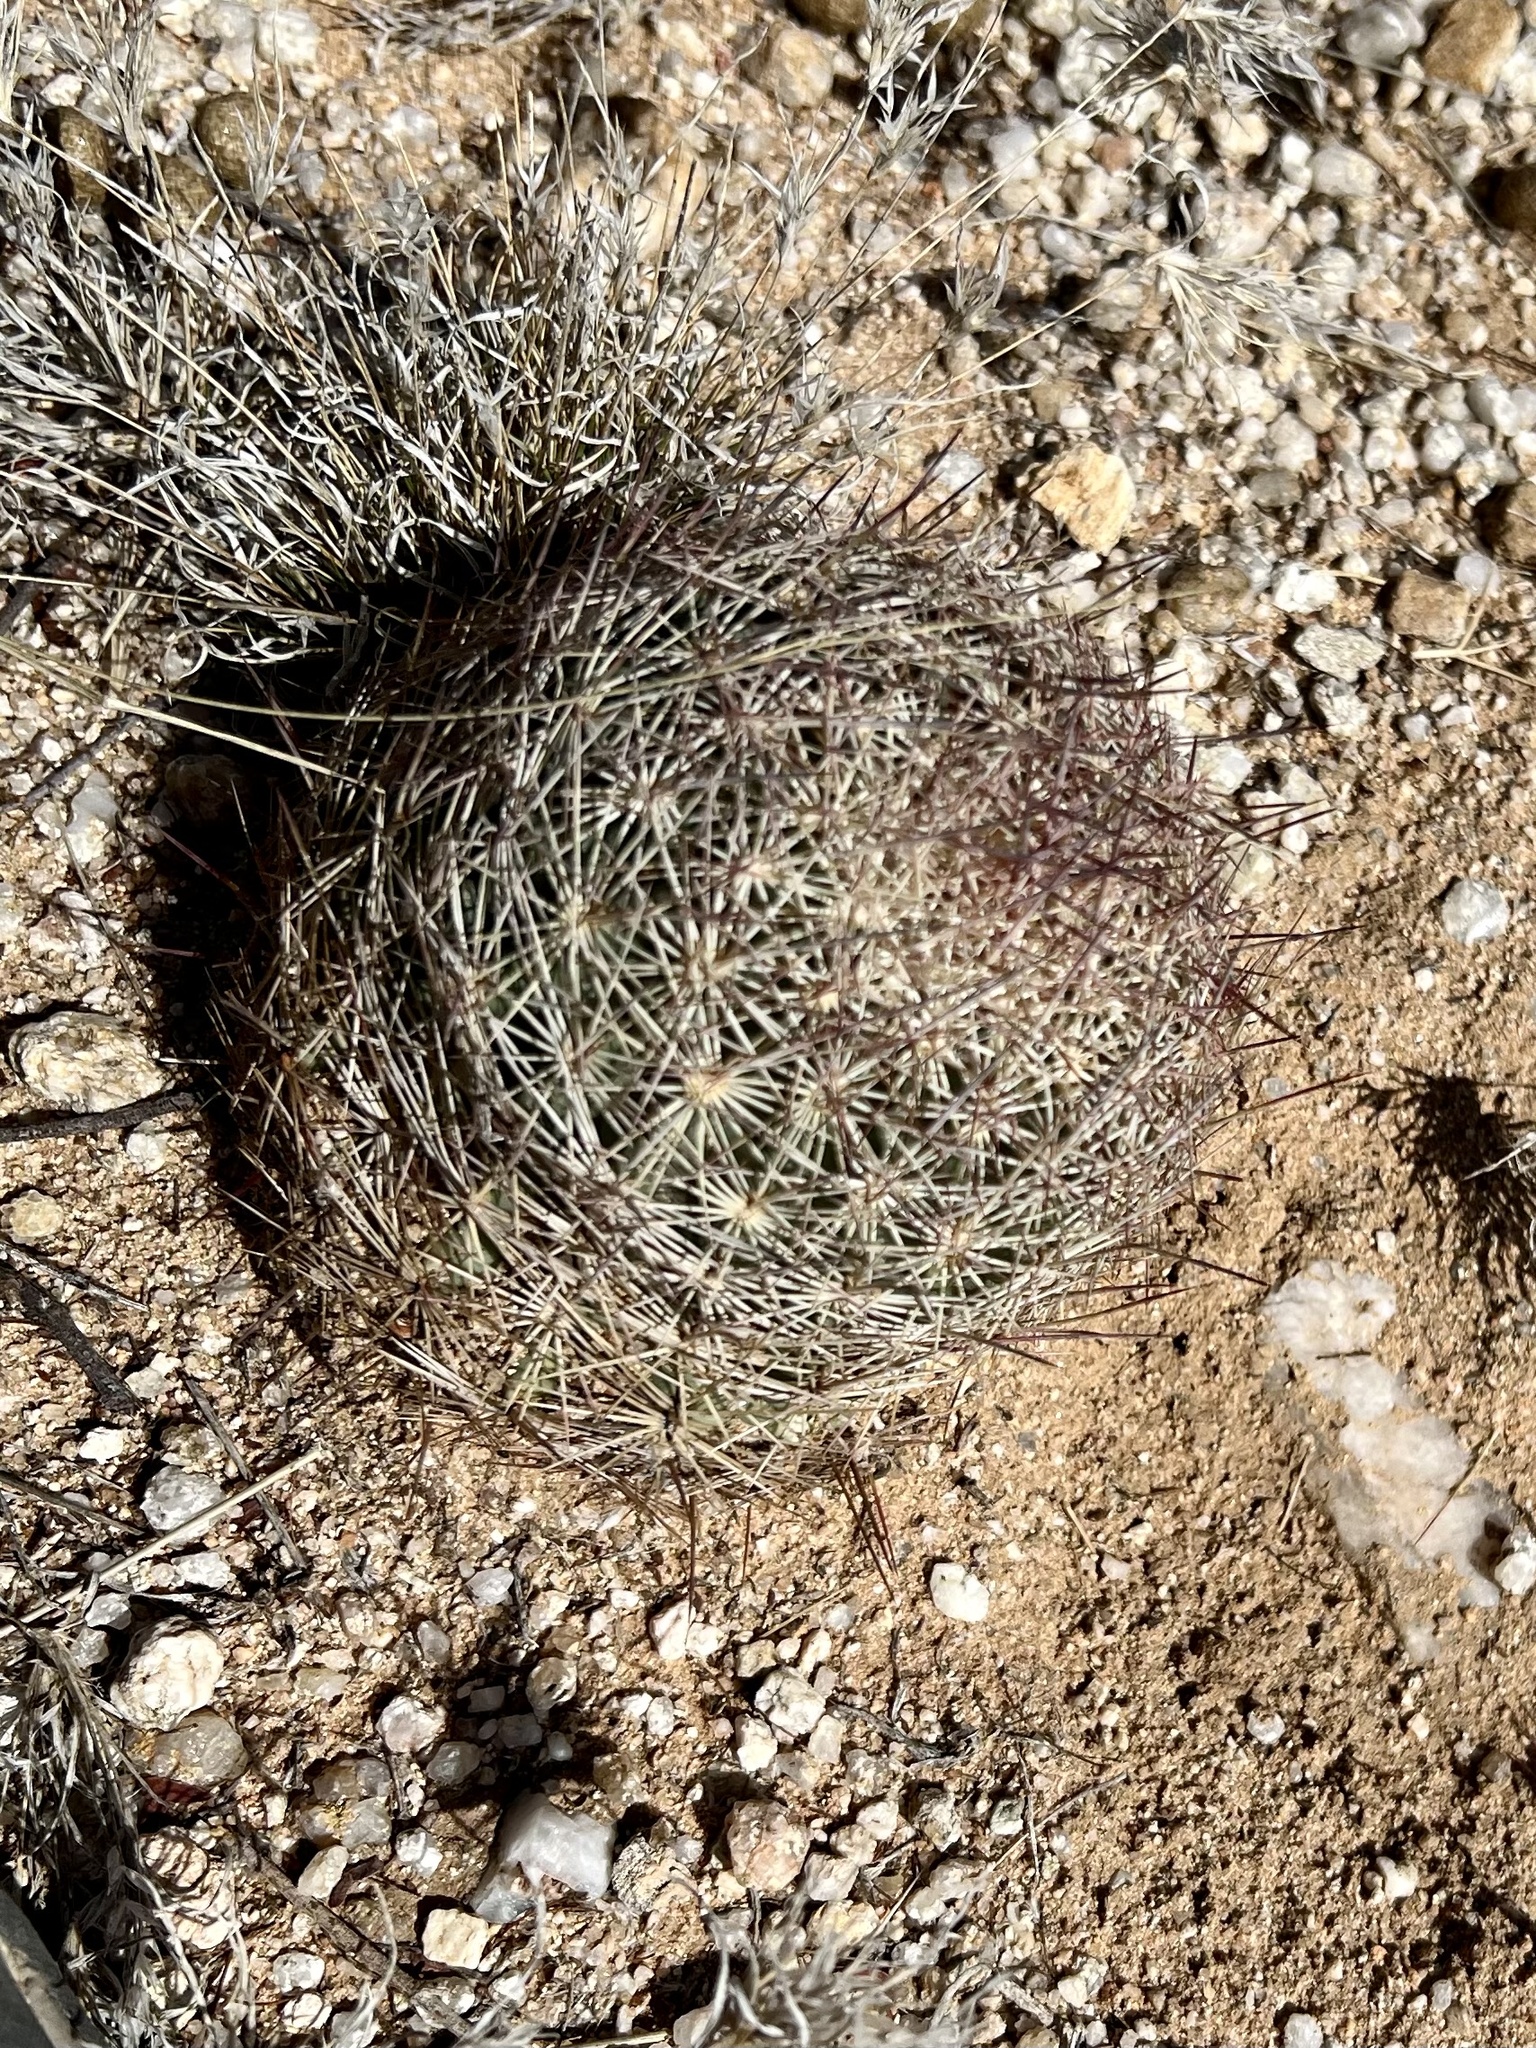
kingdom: Plantae
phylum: Tracheophyta
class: Magnoliopsida
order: Caryophyllales
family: Cactaceae
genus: Sclerocactus
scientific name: Sclerocactus johnsonii
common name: Eight-spine fishhook cactus
